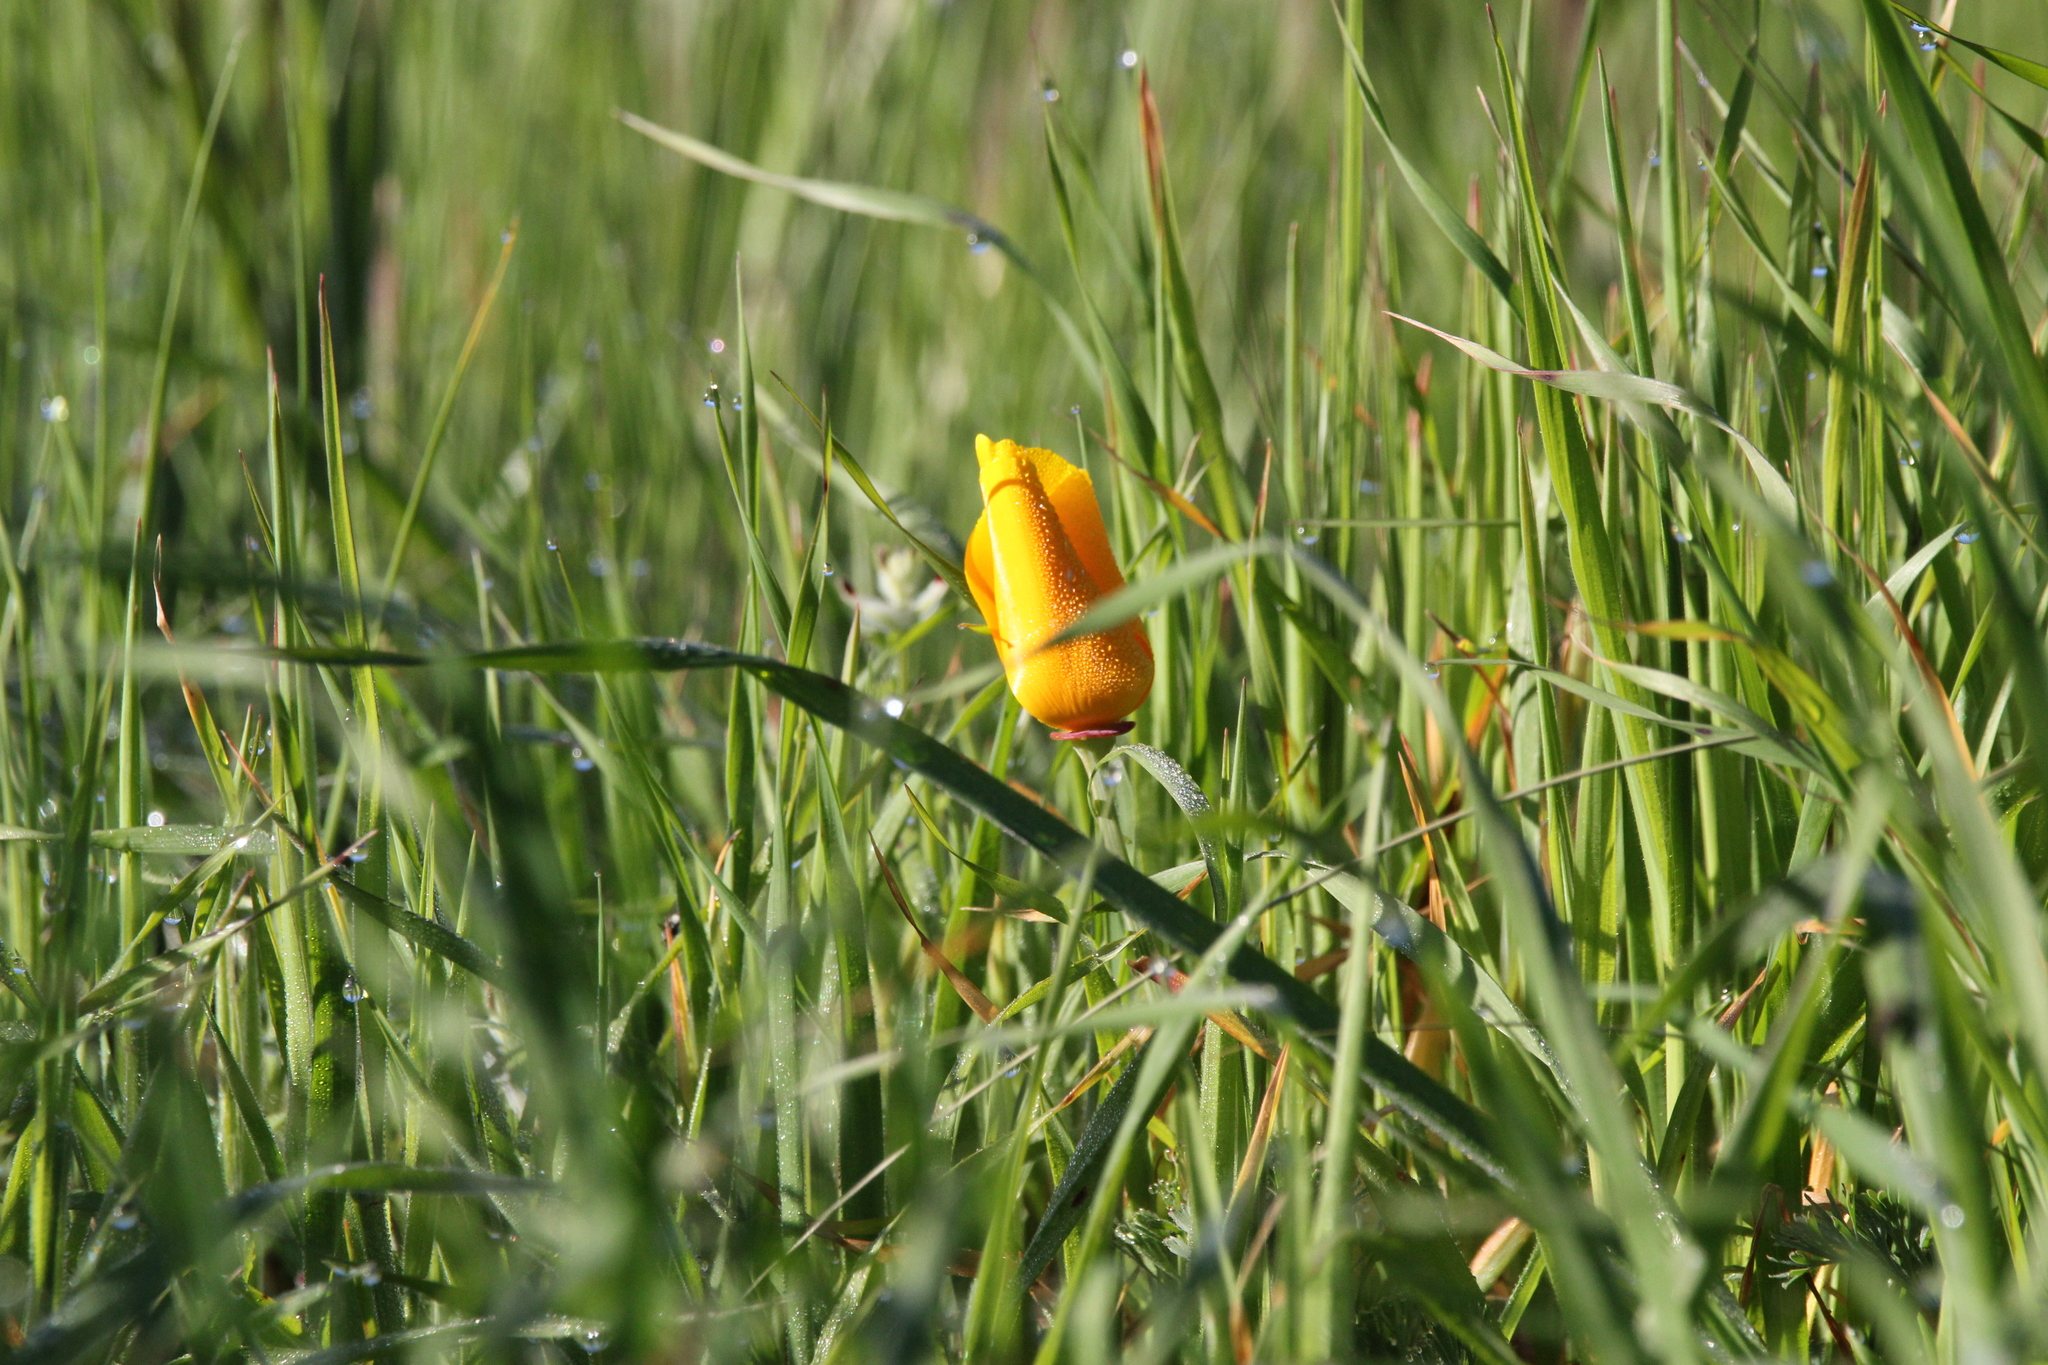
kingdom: Plantae
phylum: Tracheophyta
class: Magnoliopsida
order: Ranunculales
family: Papaveraceae
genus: Eschscholzia
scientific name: Eschscholzia californica
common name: California poppy
